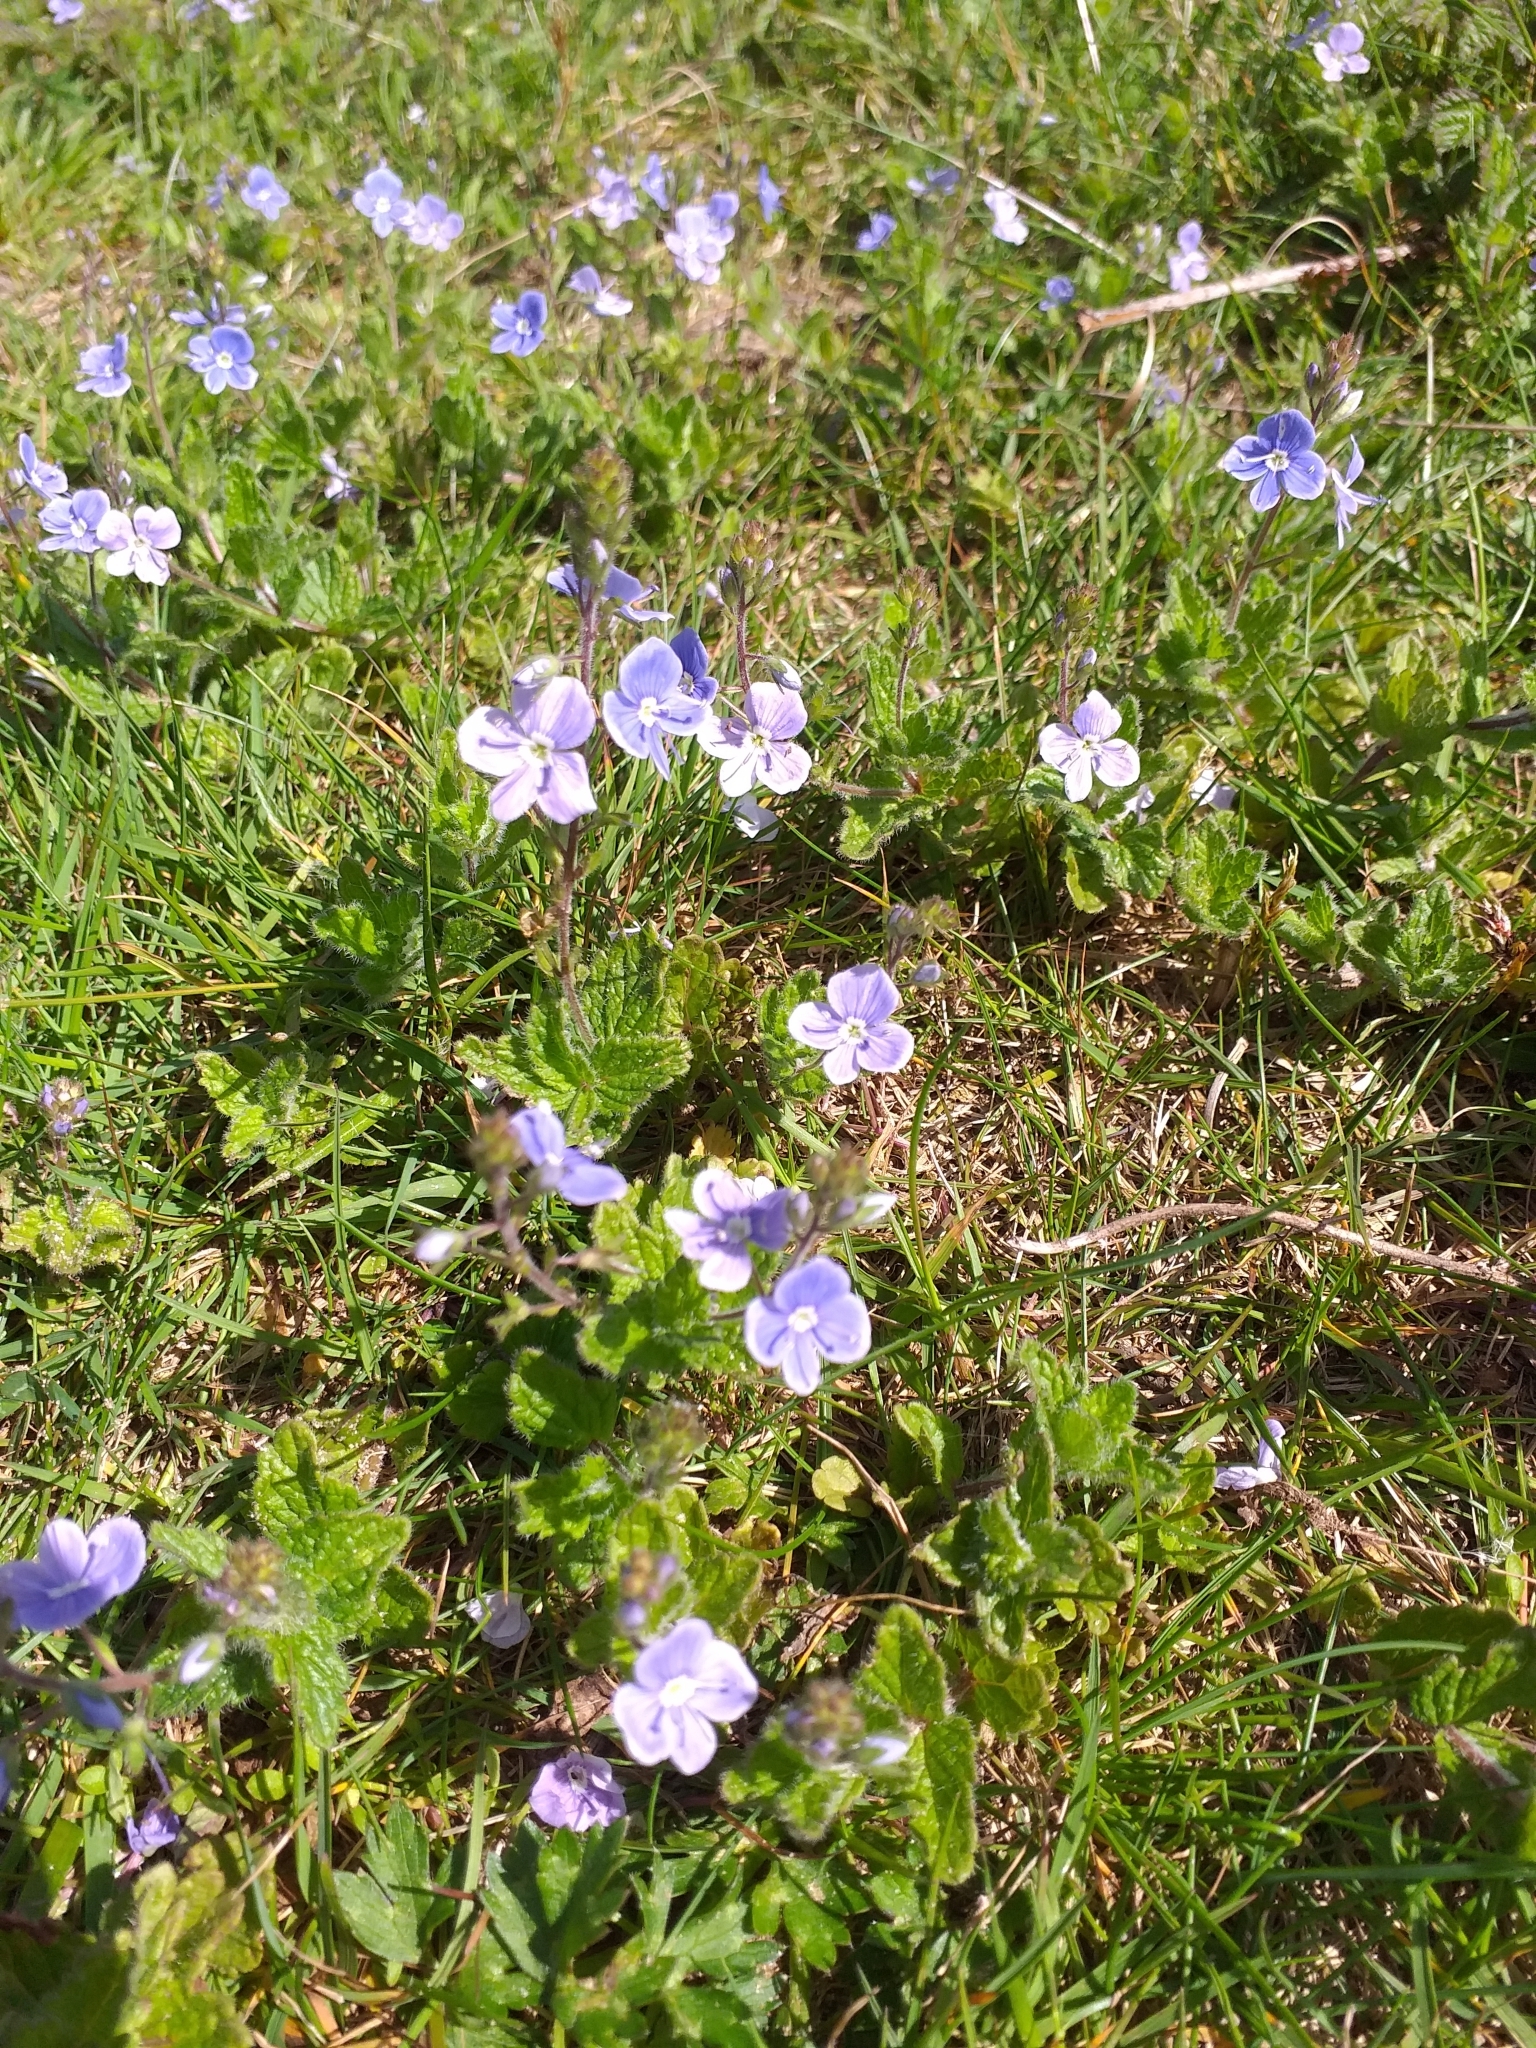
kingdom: Plantae
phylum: Tracheophyta
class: Magnoliopsida
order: Lamiales
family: Plantaginaceae
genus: Veronica
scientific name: Veronica chamaedrys
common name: Germander speedwell
